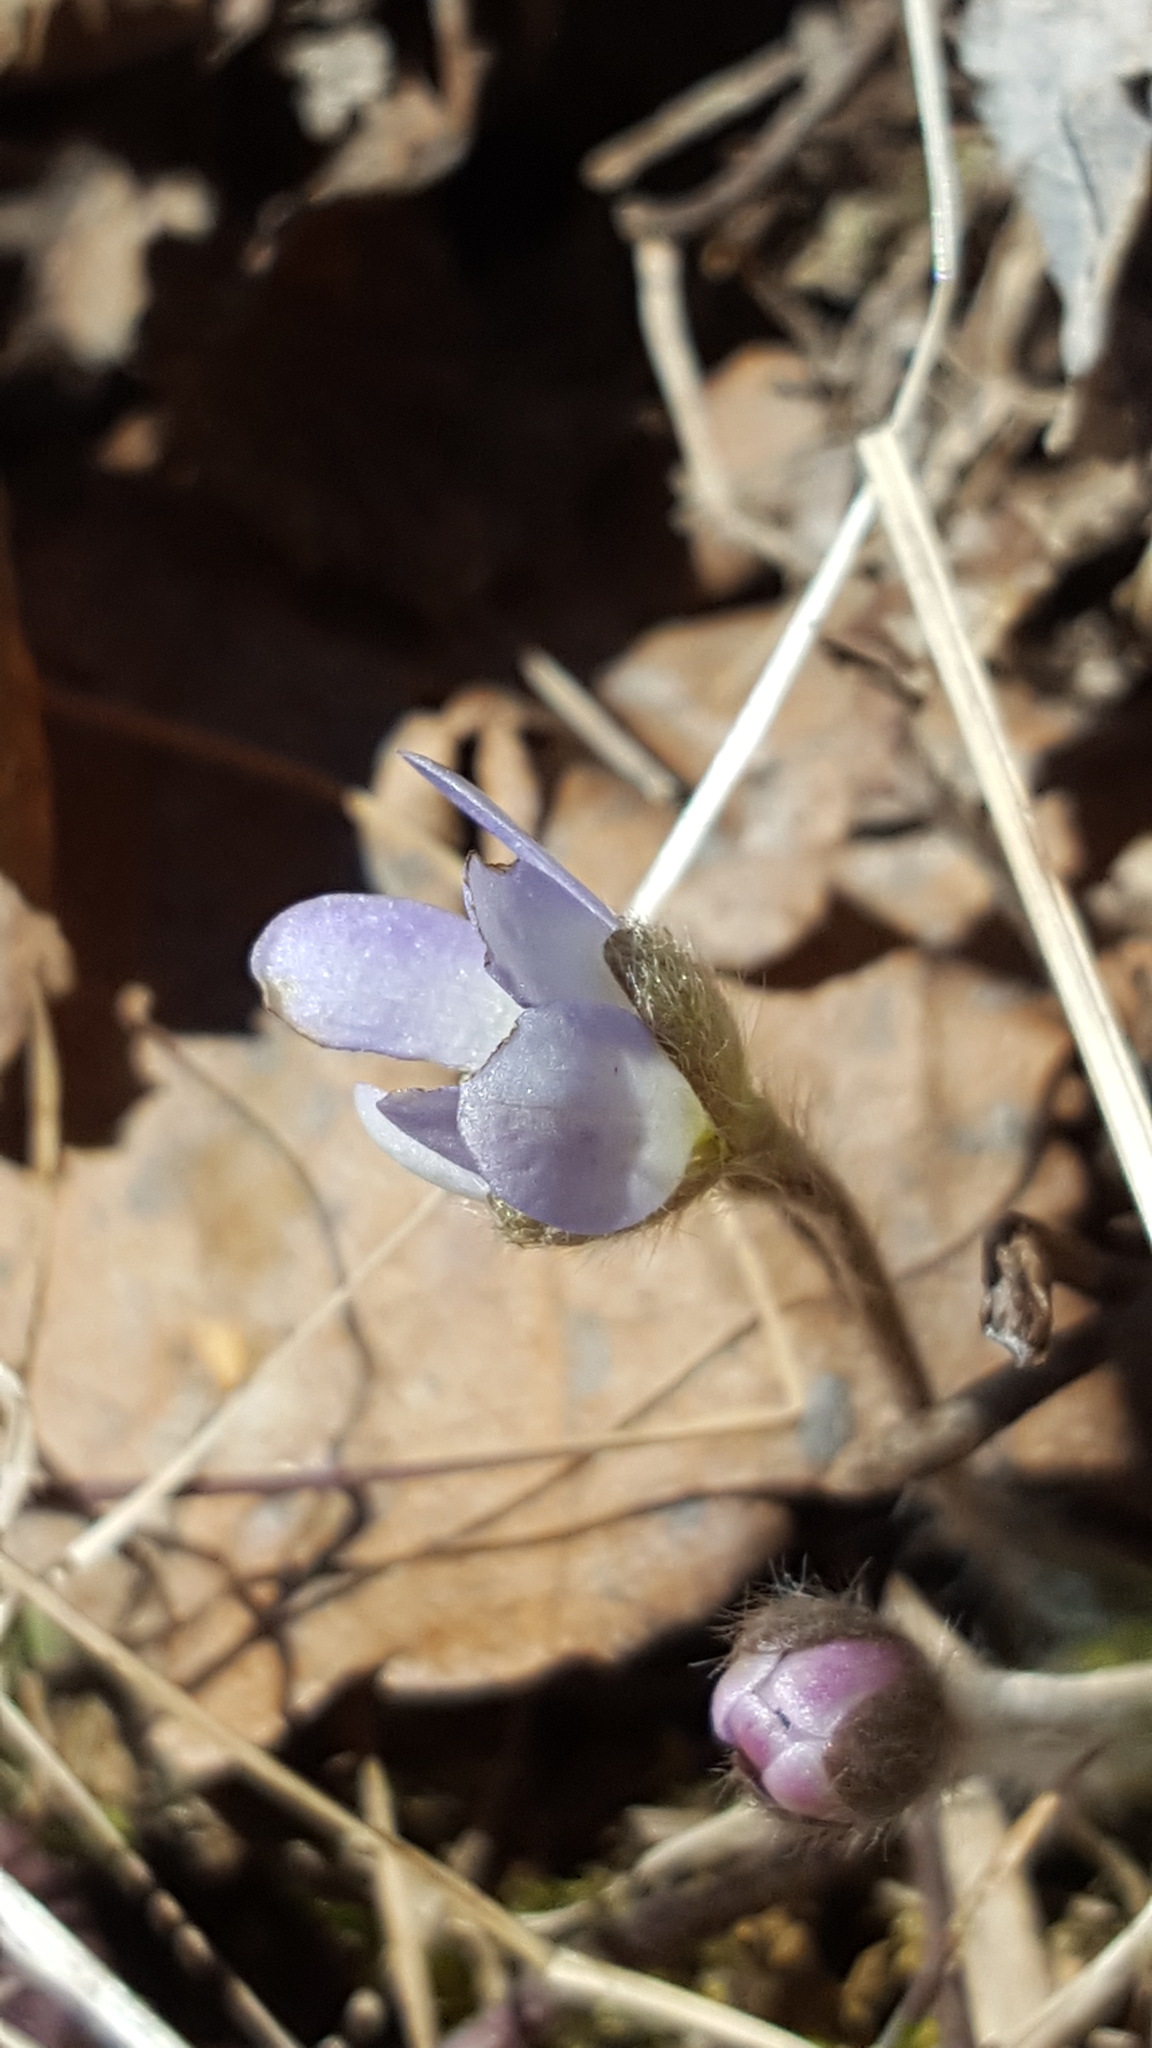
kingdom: Plantae
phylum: Tracheophyta
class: Magnoliopsida
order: Ranunculales
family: Ranunculaceae
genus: Hepatica
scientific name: Hepatica americana
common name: American hepatica
